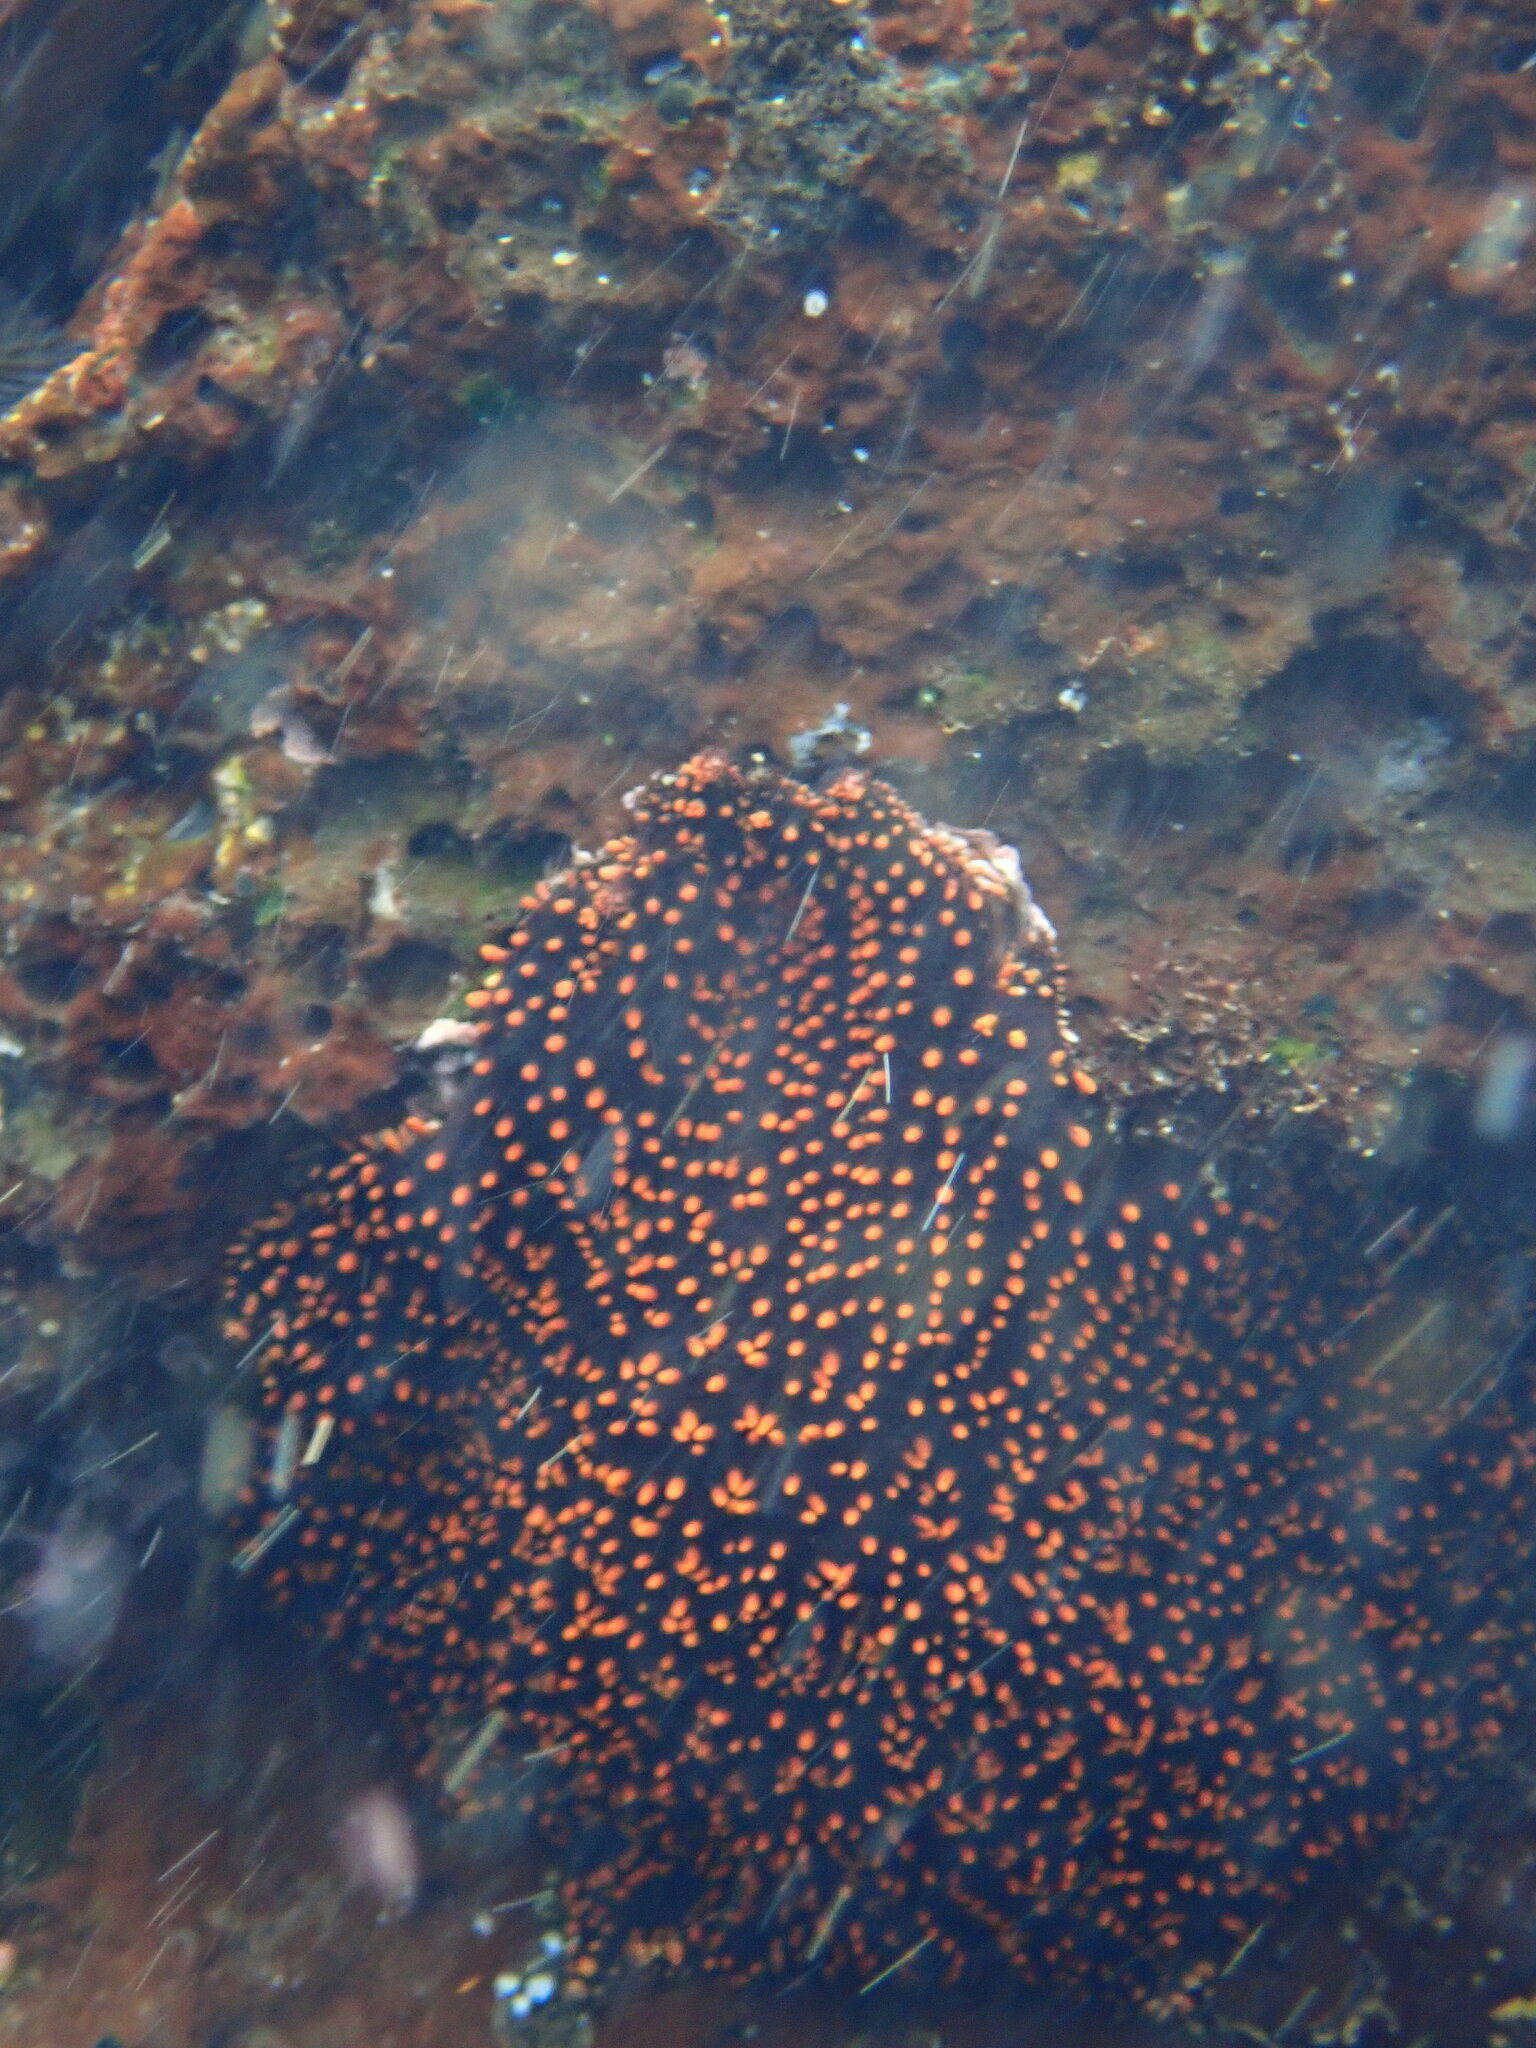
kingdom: Animalia
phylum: Echinodermata
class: Asteroidea
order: Forcipulatida
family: Heliasteridae
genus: Heliaster
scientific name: Heliaster cumingi
